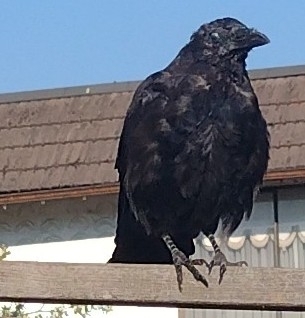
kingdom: Animalia
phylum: Chordata
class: Aves
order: Passeriformes
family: Corvidae
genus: Corvus
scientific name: Corvus brachyrhynchos
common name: American crow
